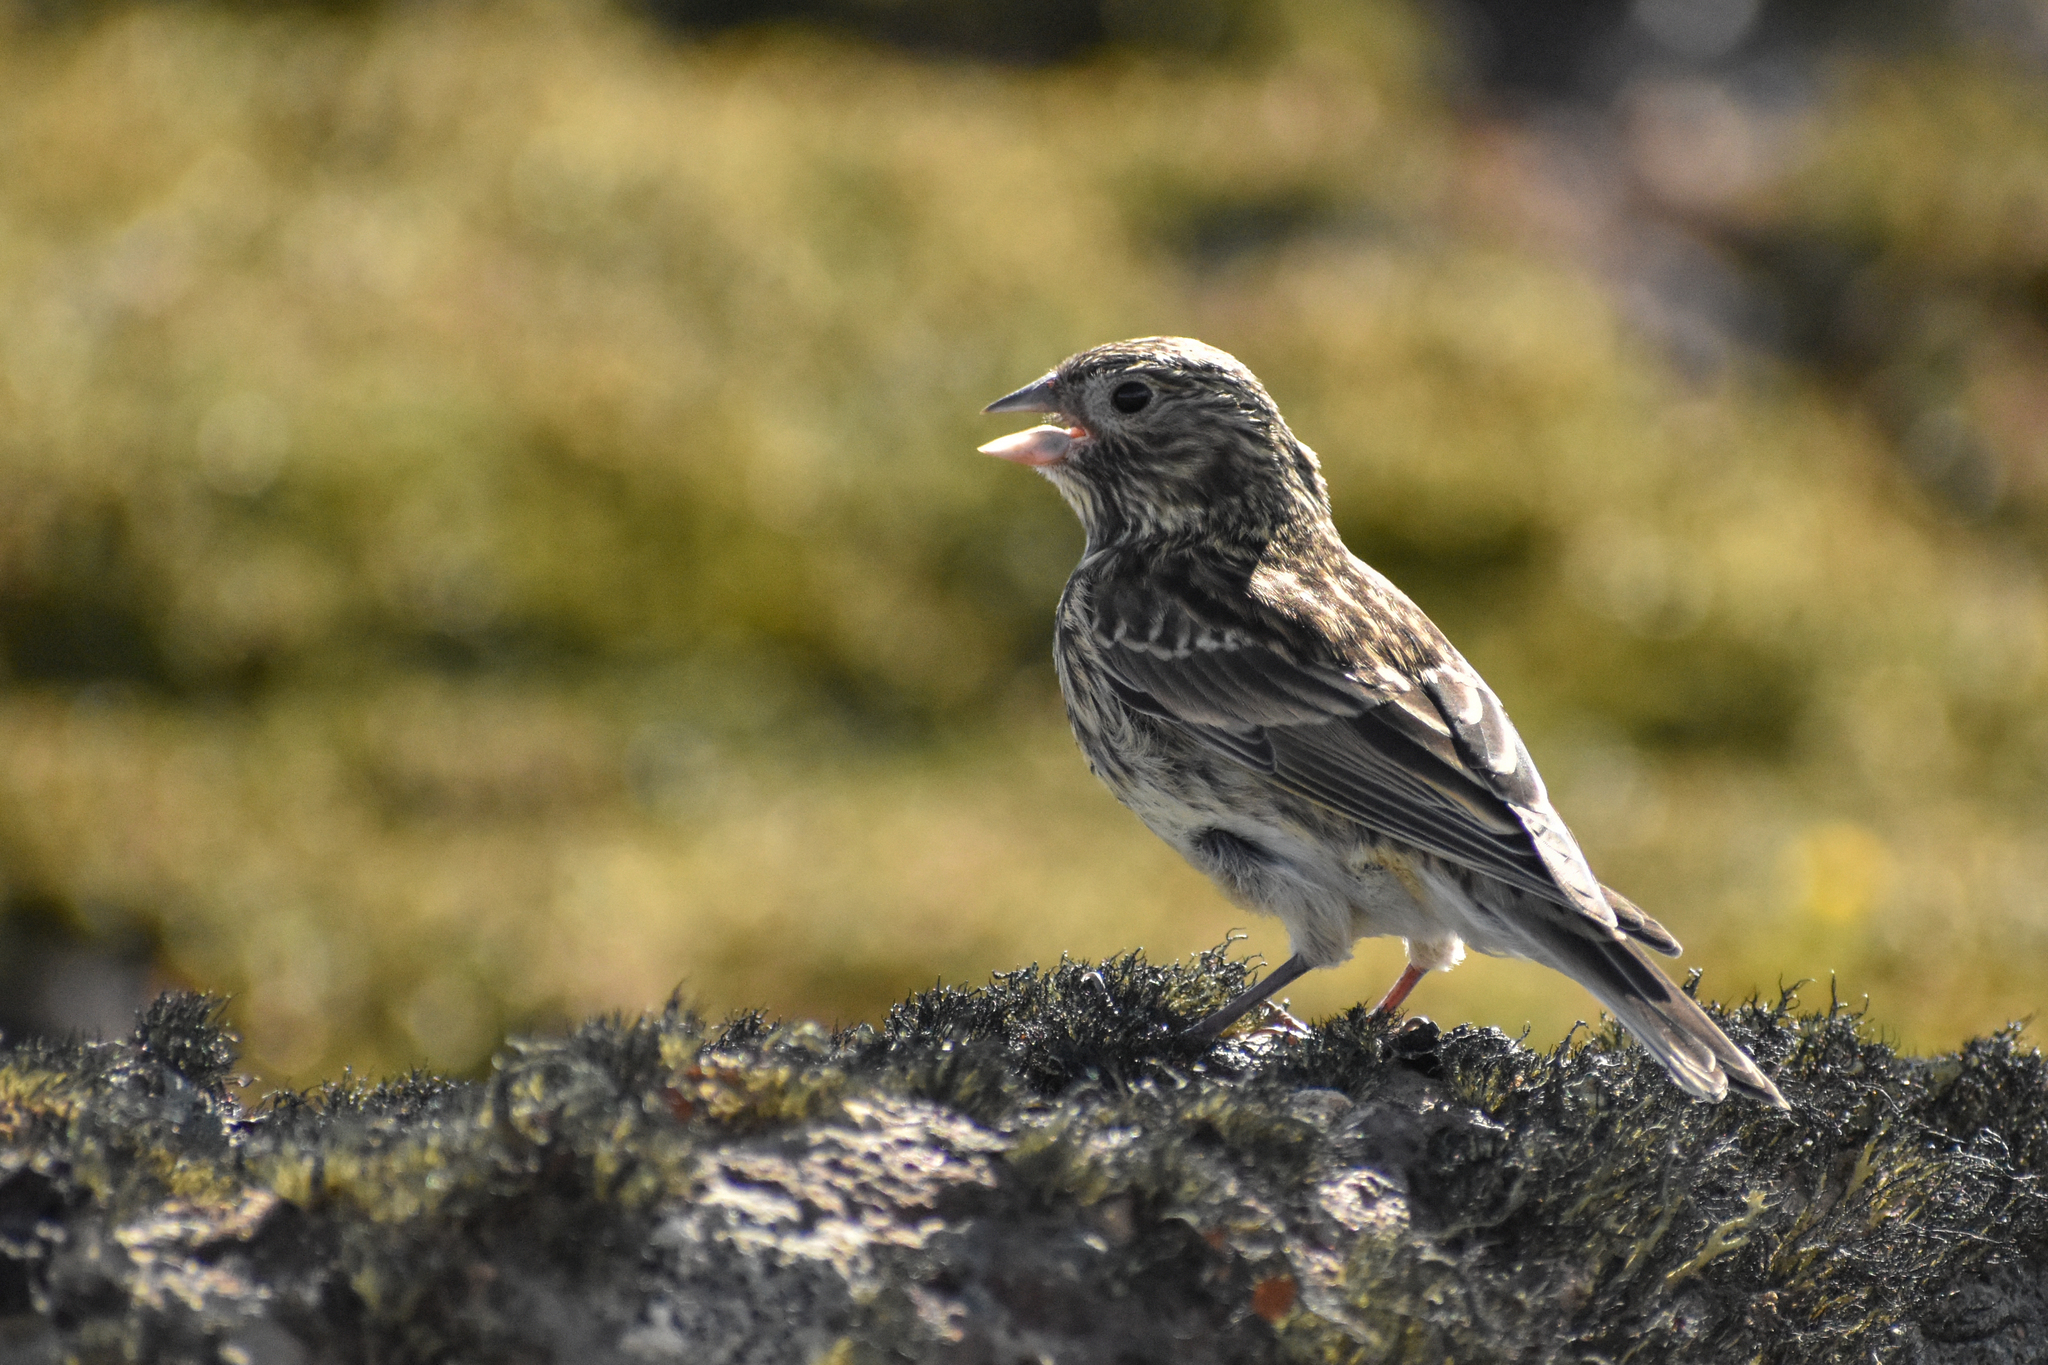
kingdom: Animalia
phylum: Chordata
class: Aves
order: Passeriformes
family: Thraupidae
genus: Melanodera
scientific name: Melanodera xanthogramma
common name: Yellow-bridled finch
